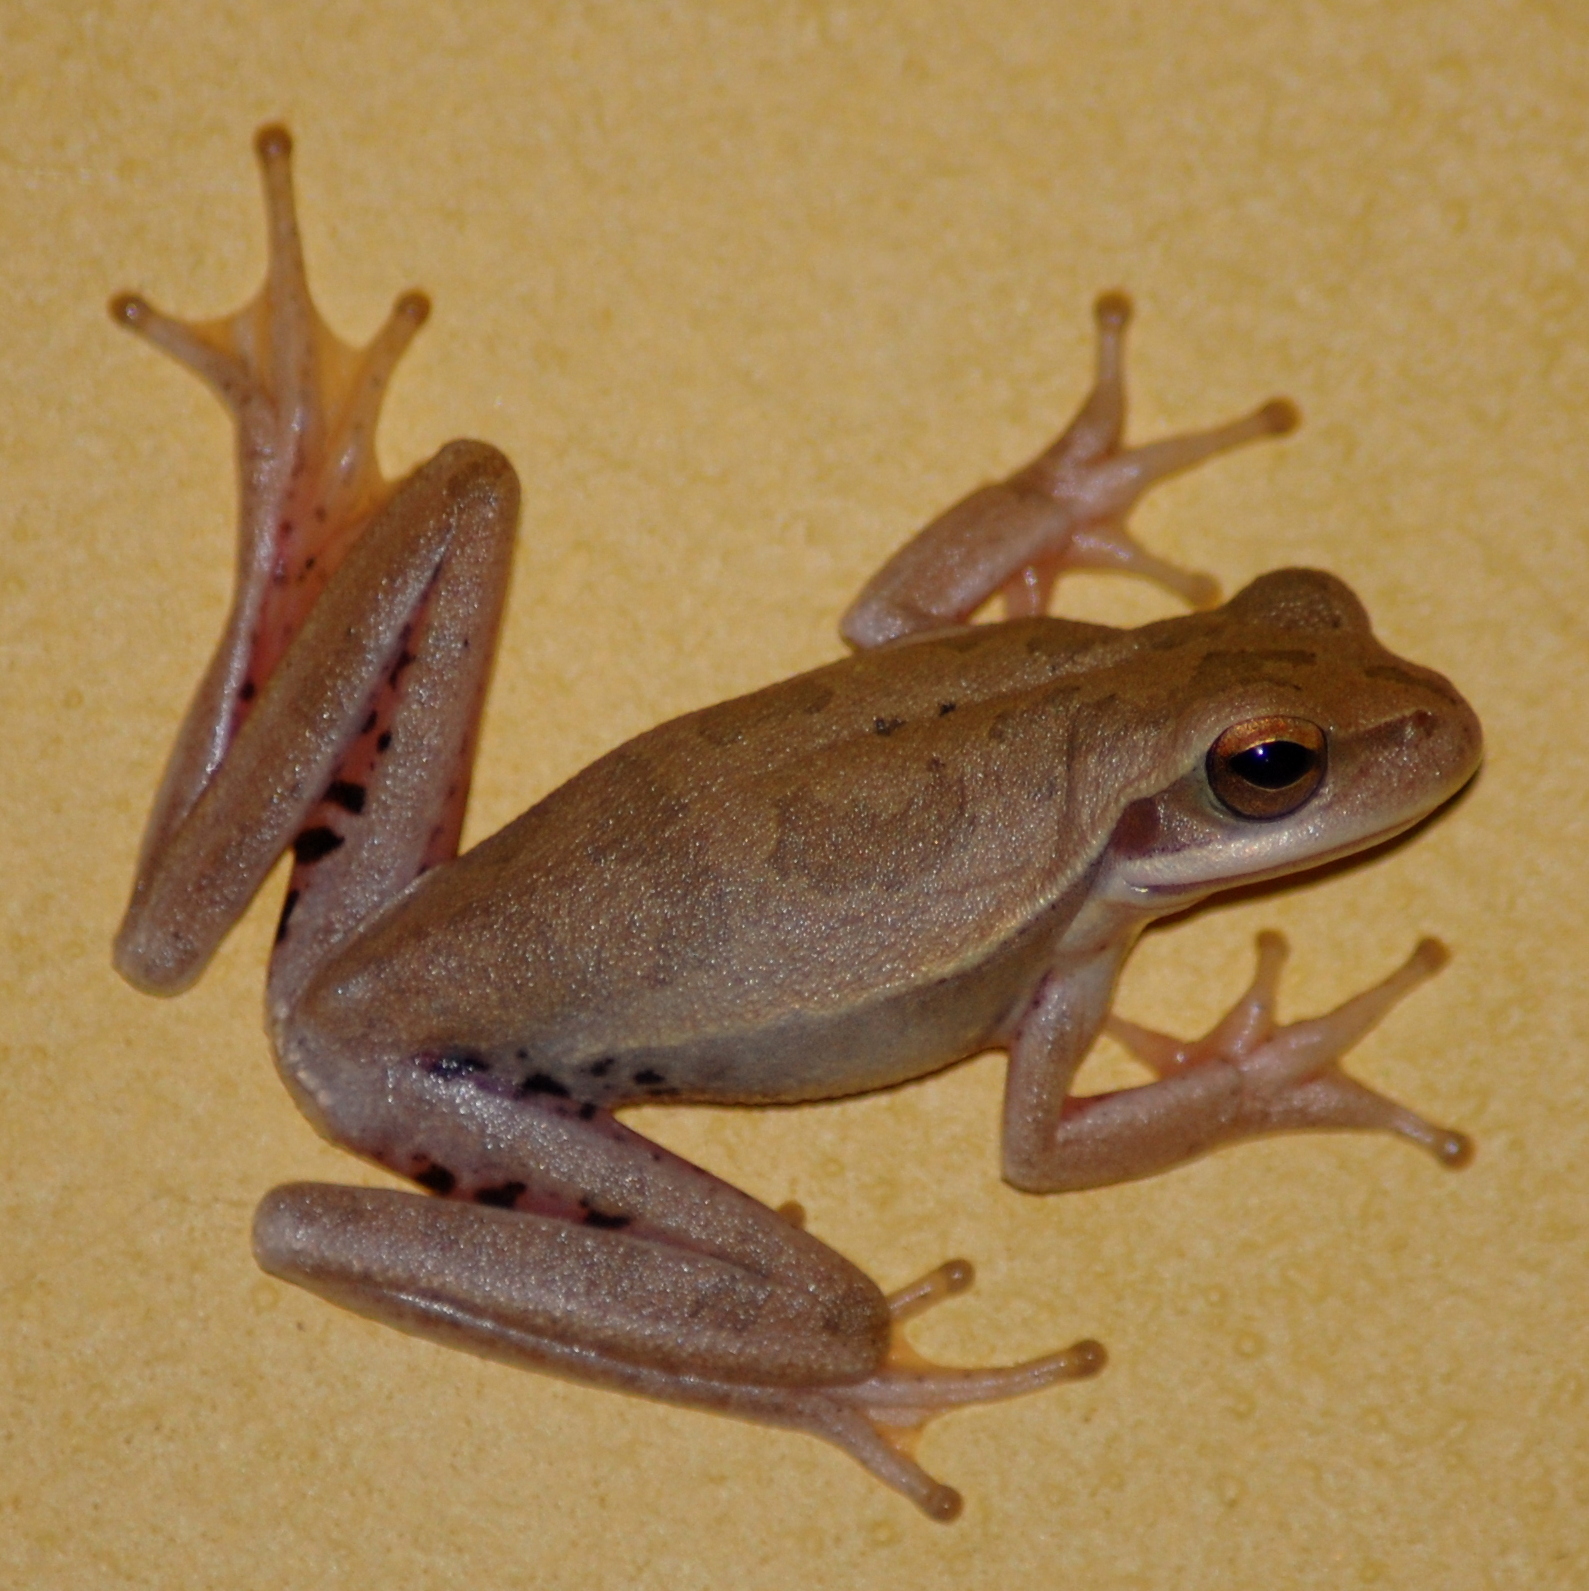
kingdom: Animalia
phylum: Chordata
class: Amphibia
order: Anura
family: Hylidae
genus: Boana
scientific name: Boana pulchella
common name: Montevideo treefrog
